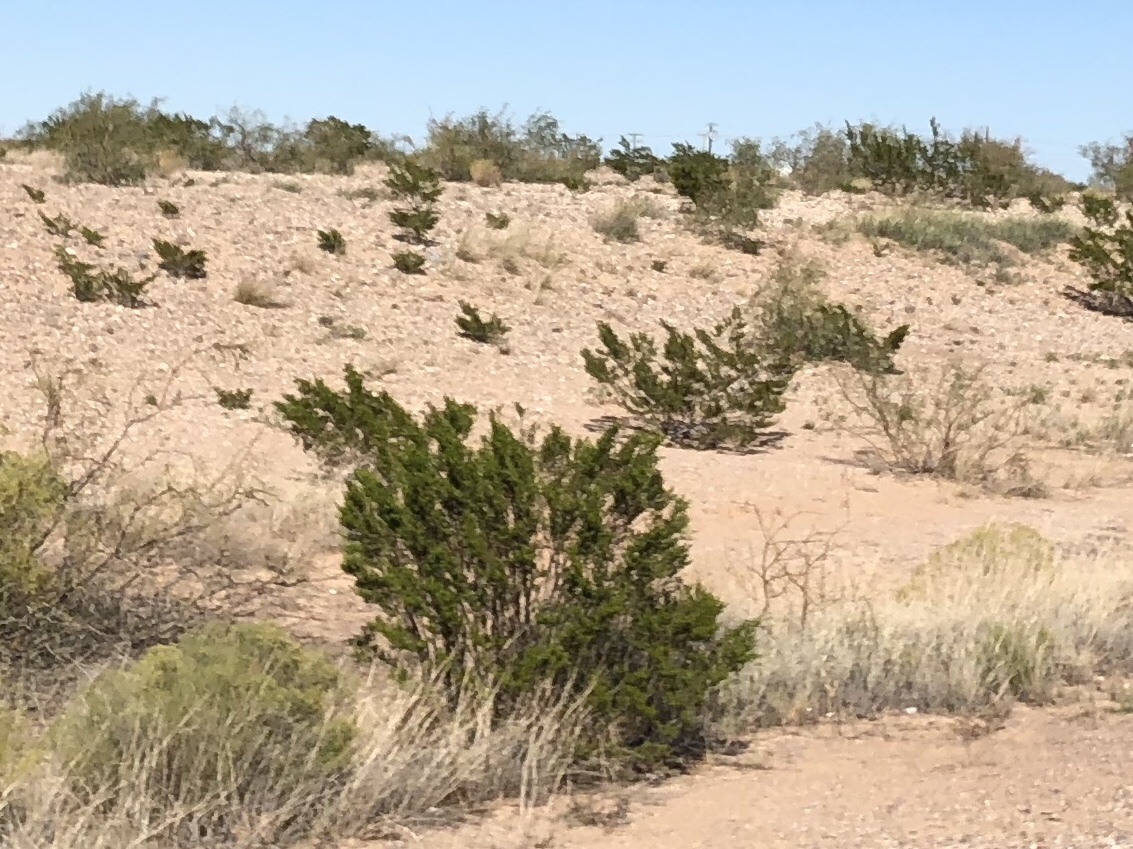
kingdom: Plantae
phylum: Tracheophyta
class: Magnoliopsida
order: Zygophyllales
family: Zygophyllaceae
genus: Larrea
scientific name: Larrea tridentata
